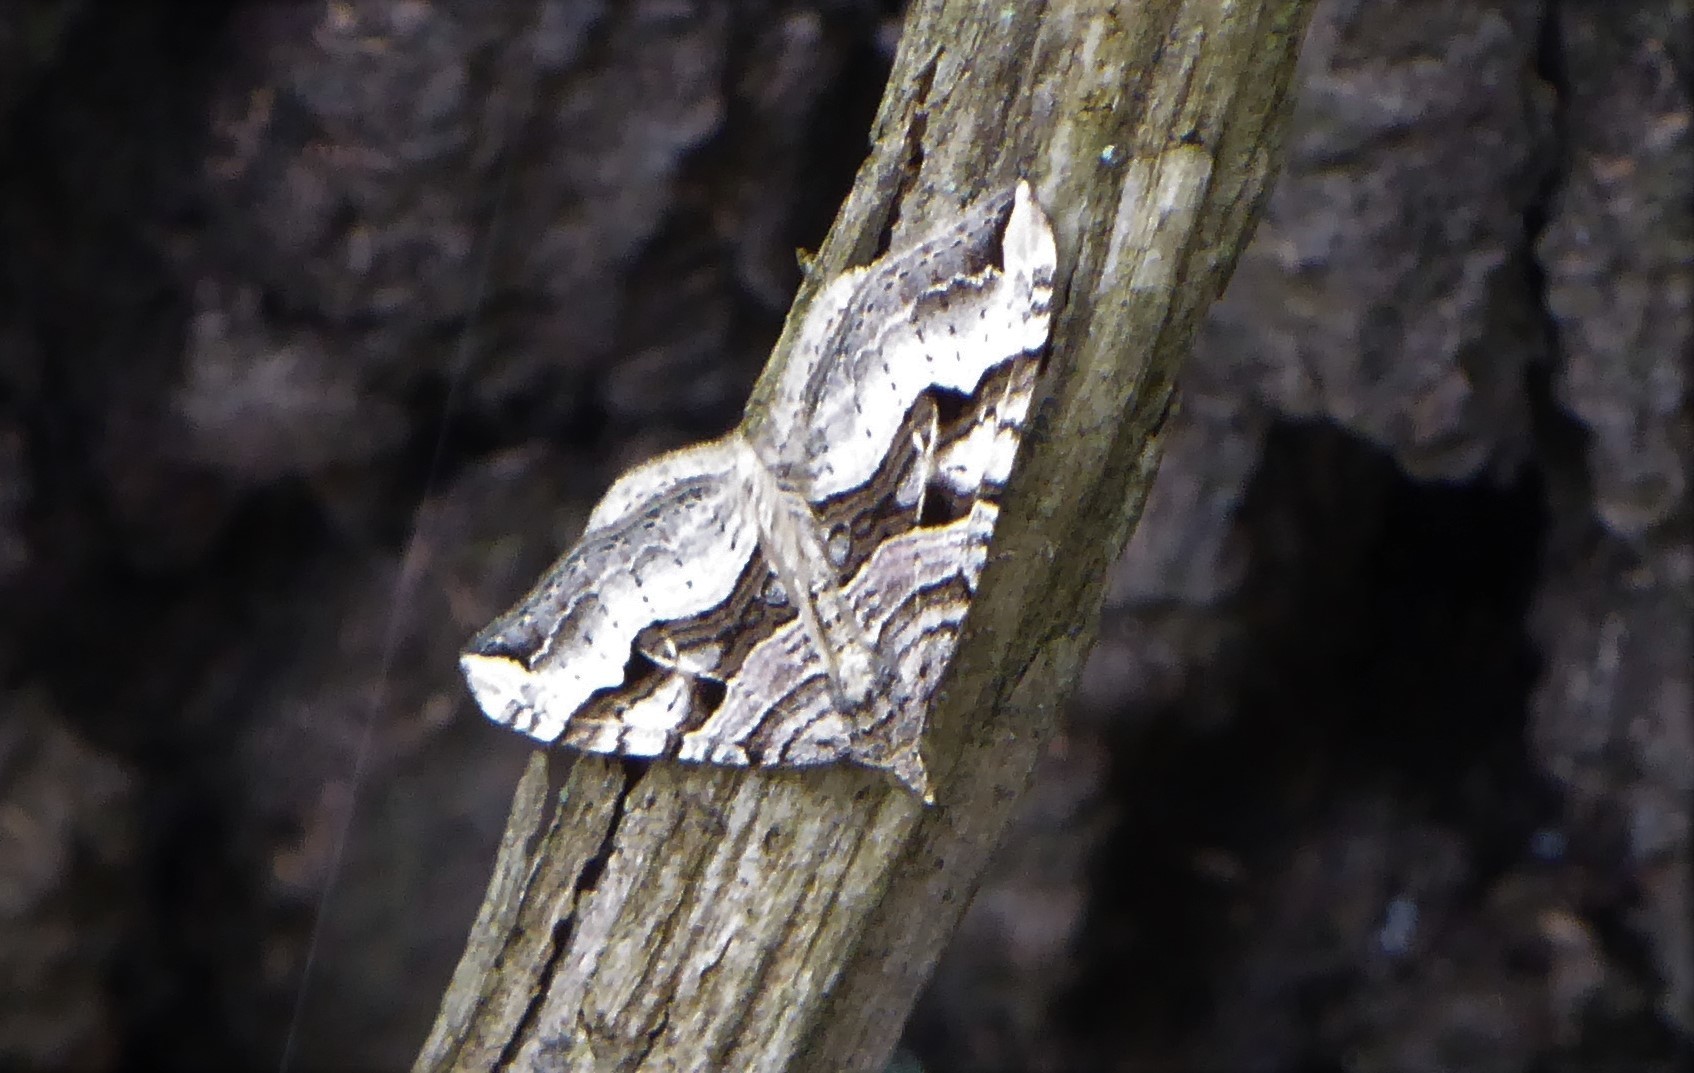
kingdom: Animalia
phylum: Arthropoda
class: Insecta
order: Lepidoptera
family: Geometridae
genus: Xanthorhoe
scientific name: Xanthorhoe semifissata
